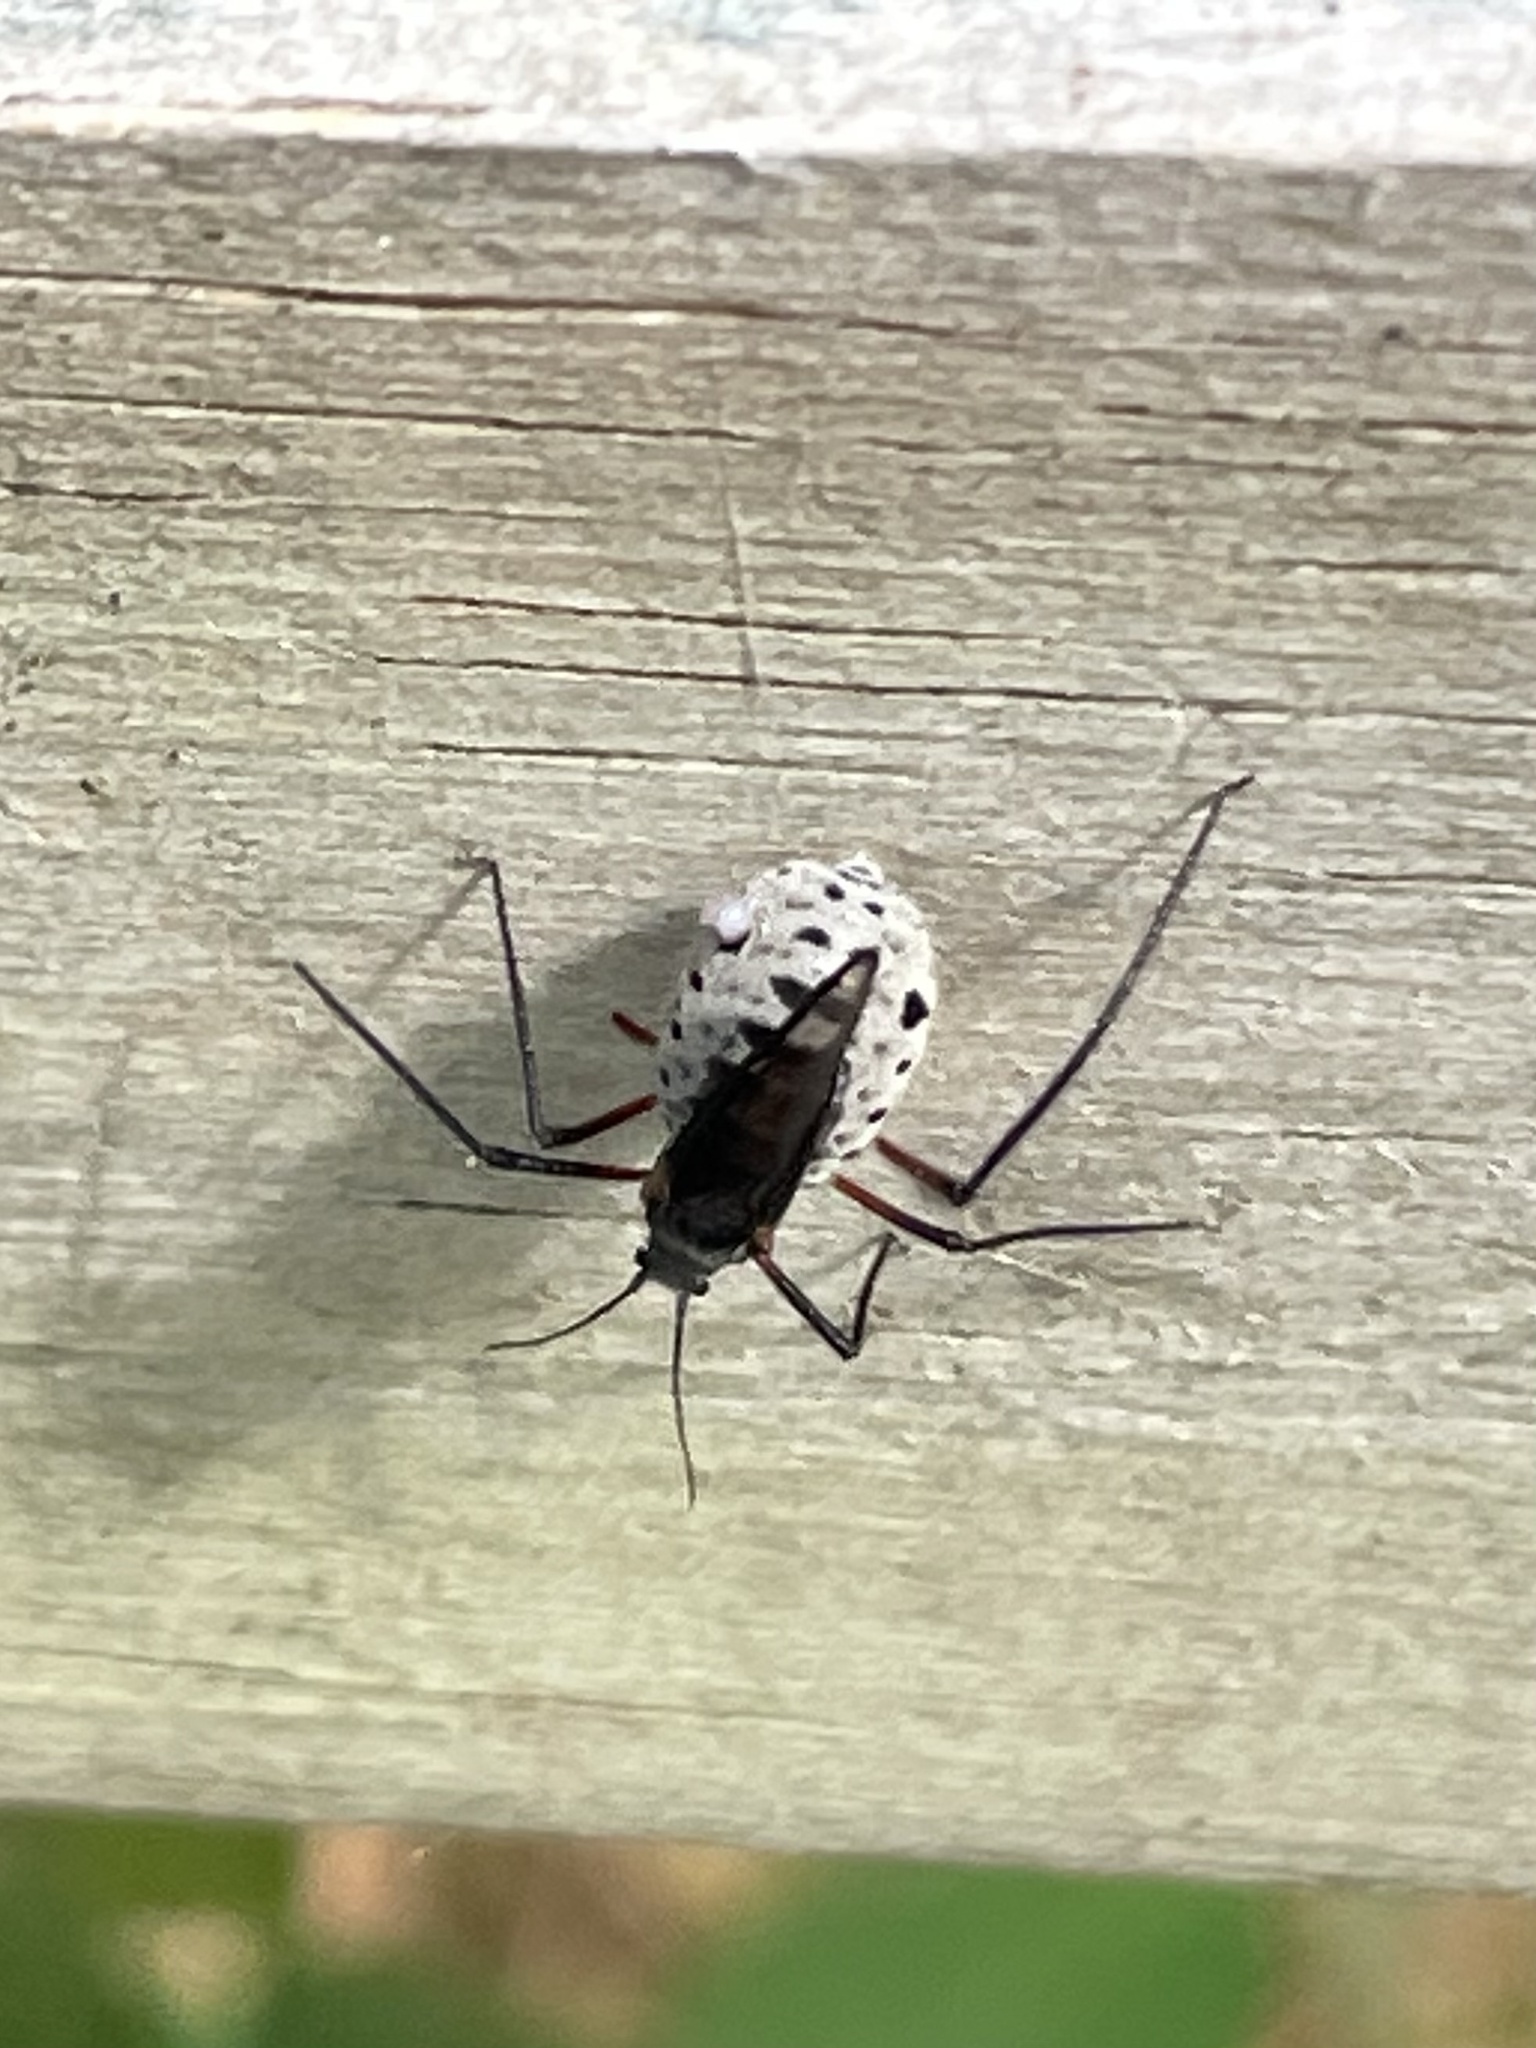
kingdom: Animalia
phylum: Arthropoda
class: Insecta
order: Hemiptera
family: Aphididae
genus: Longistigma
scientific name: Longistigma caryae
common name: Giant bark aphid
